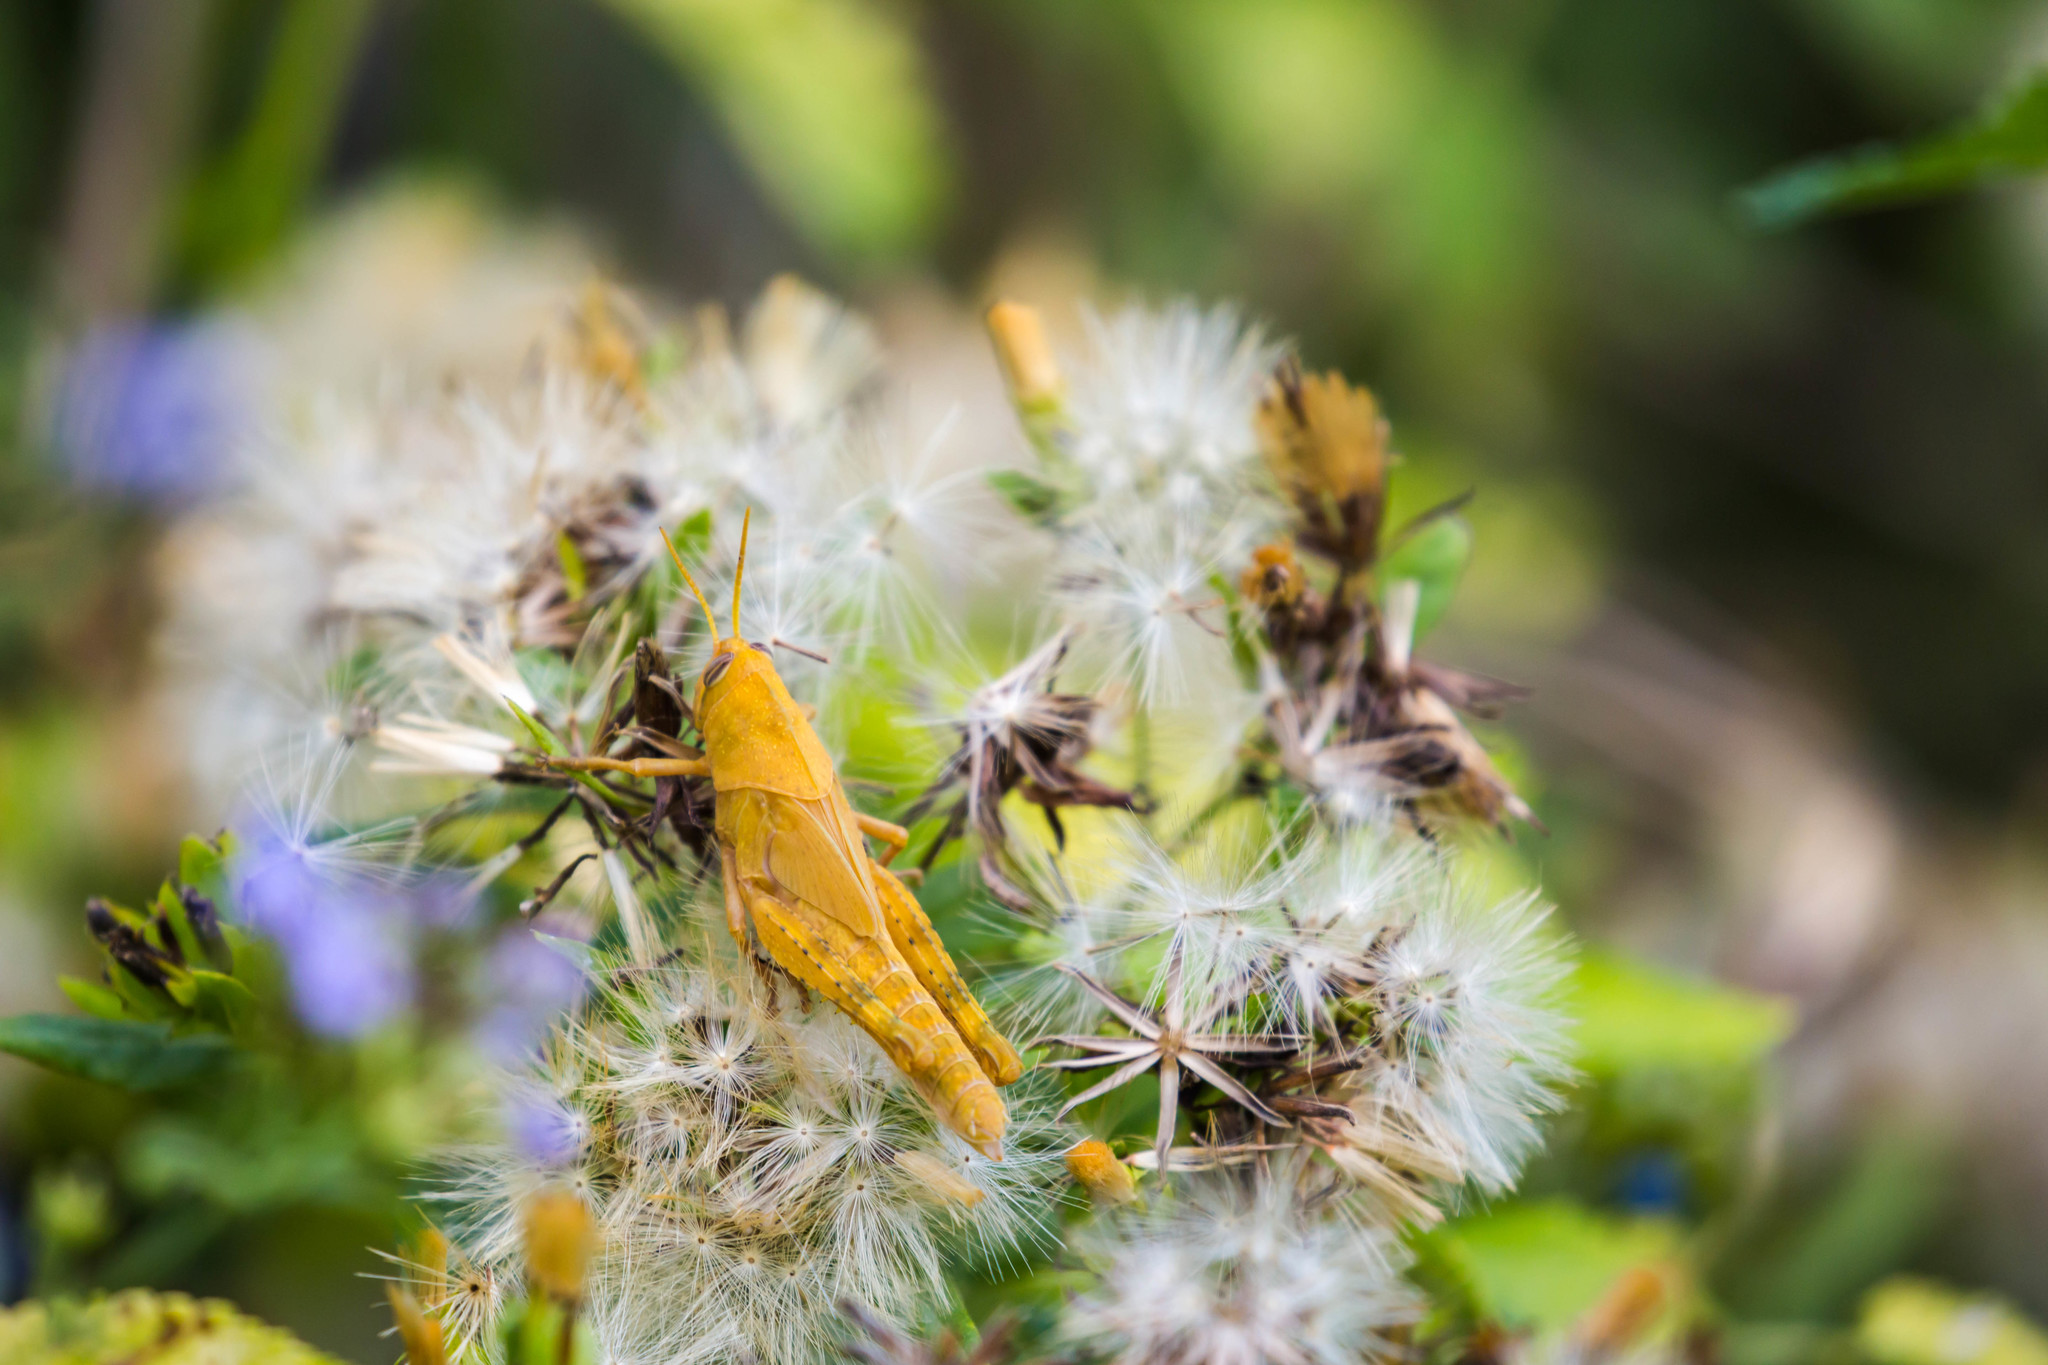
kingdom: Animalia
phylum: Arthropoda
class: Insecta
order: Orthoptera
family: Acrididae
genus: Schistocerca
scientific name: Schistocerca nitens
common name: Vagrant grasshopper
